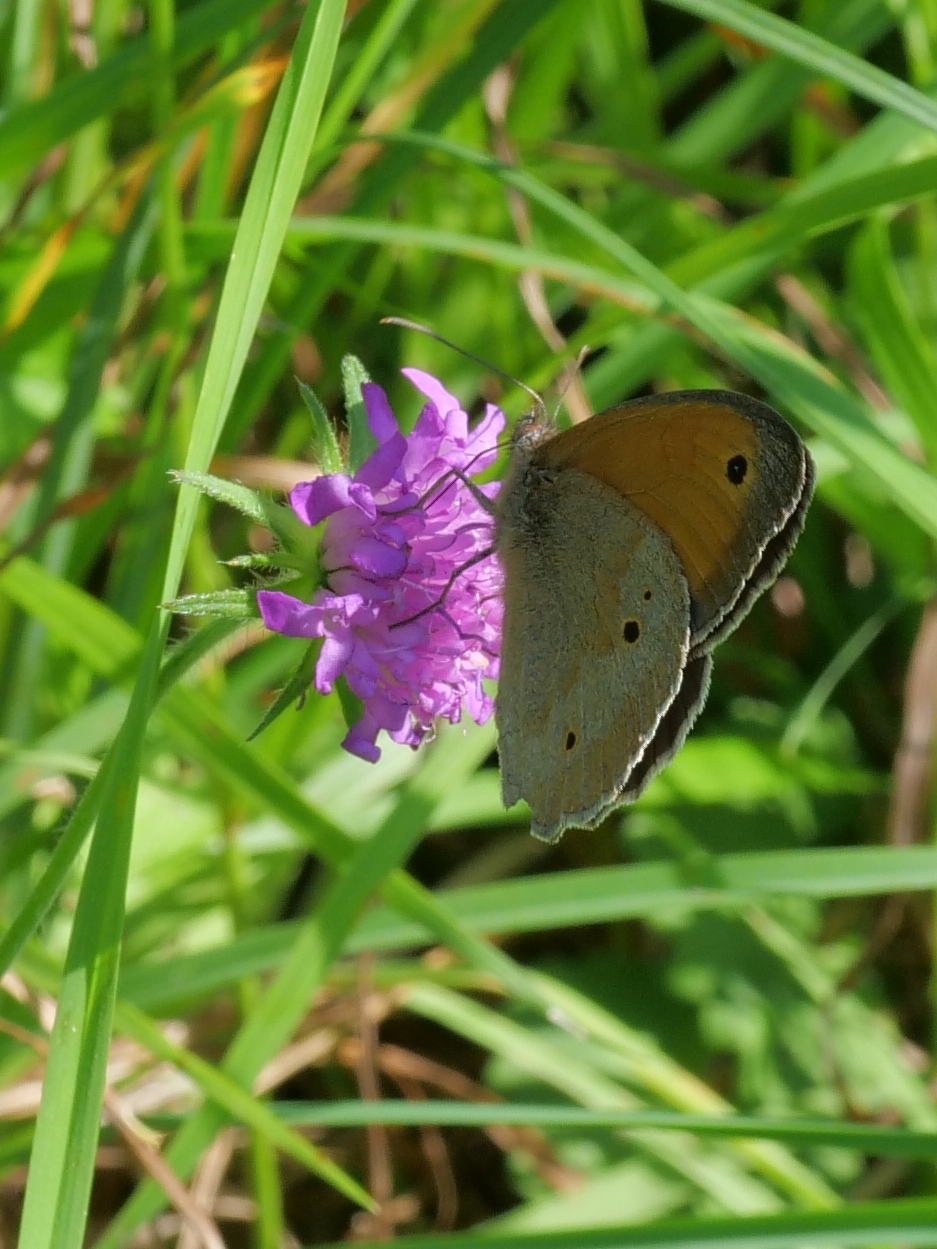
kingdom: Animalia
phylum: Arthropoda
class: Insecta
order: Lepidoptera
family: Nymphalidae
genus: Maniola
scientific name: Maniola jurtina
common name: Meadow brown
